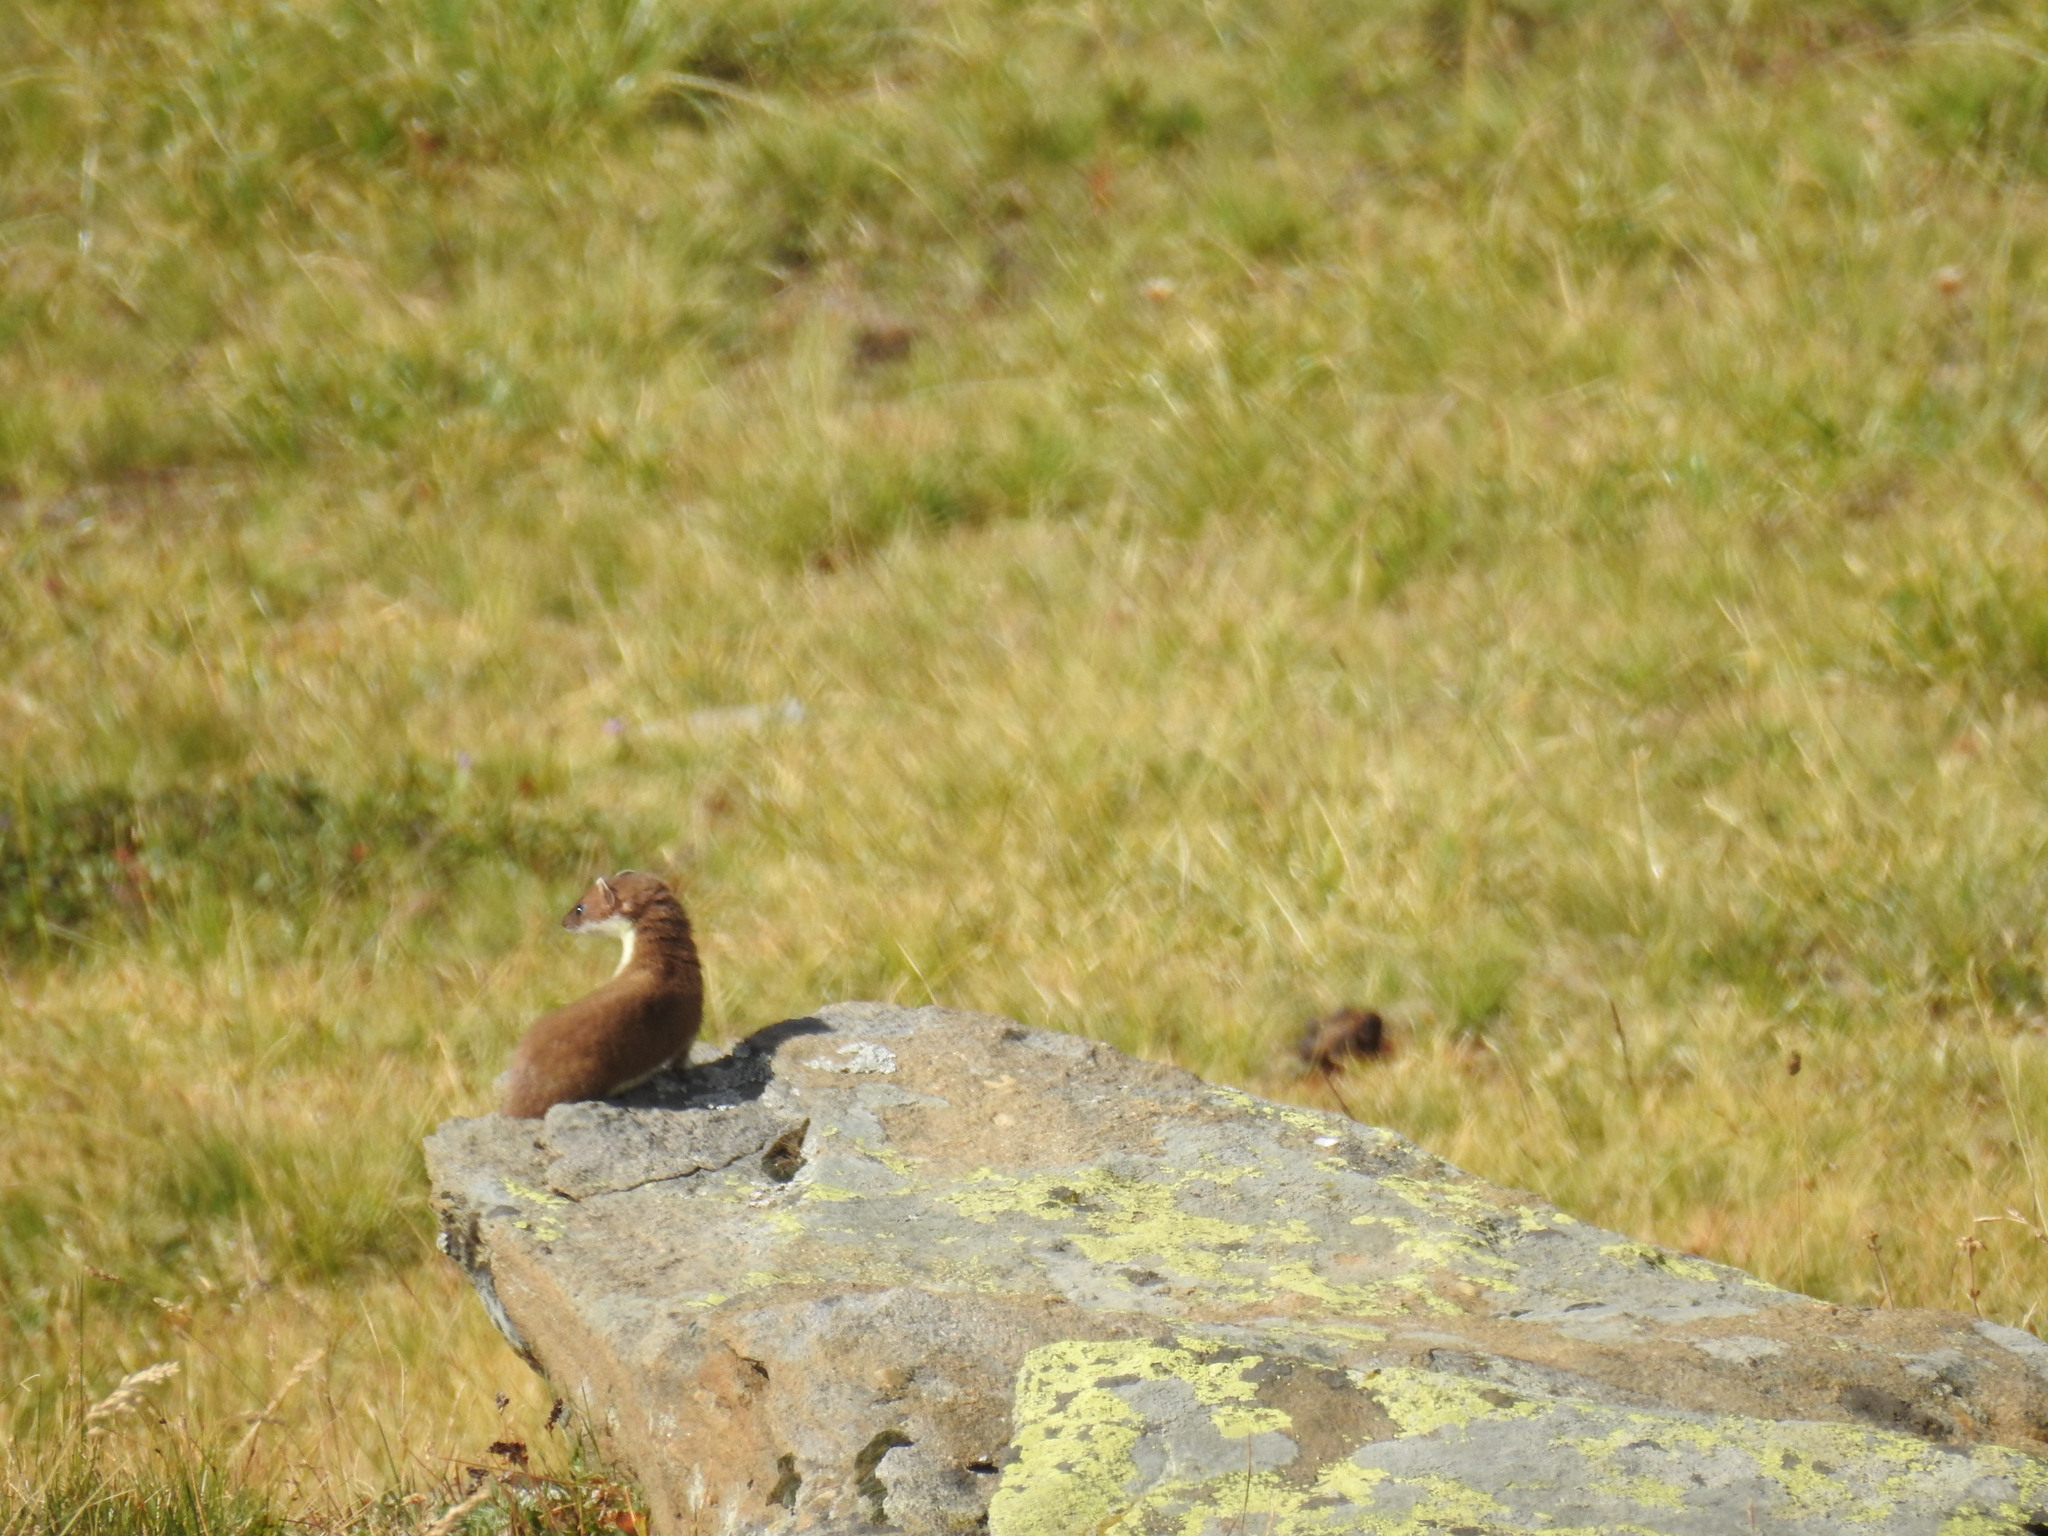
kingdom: Animalia
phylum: Chordata
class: Mammalia
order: Carnivora
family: Mustelidae
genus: Mustela
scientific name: Mustela erminea
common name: Stoat
